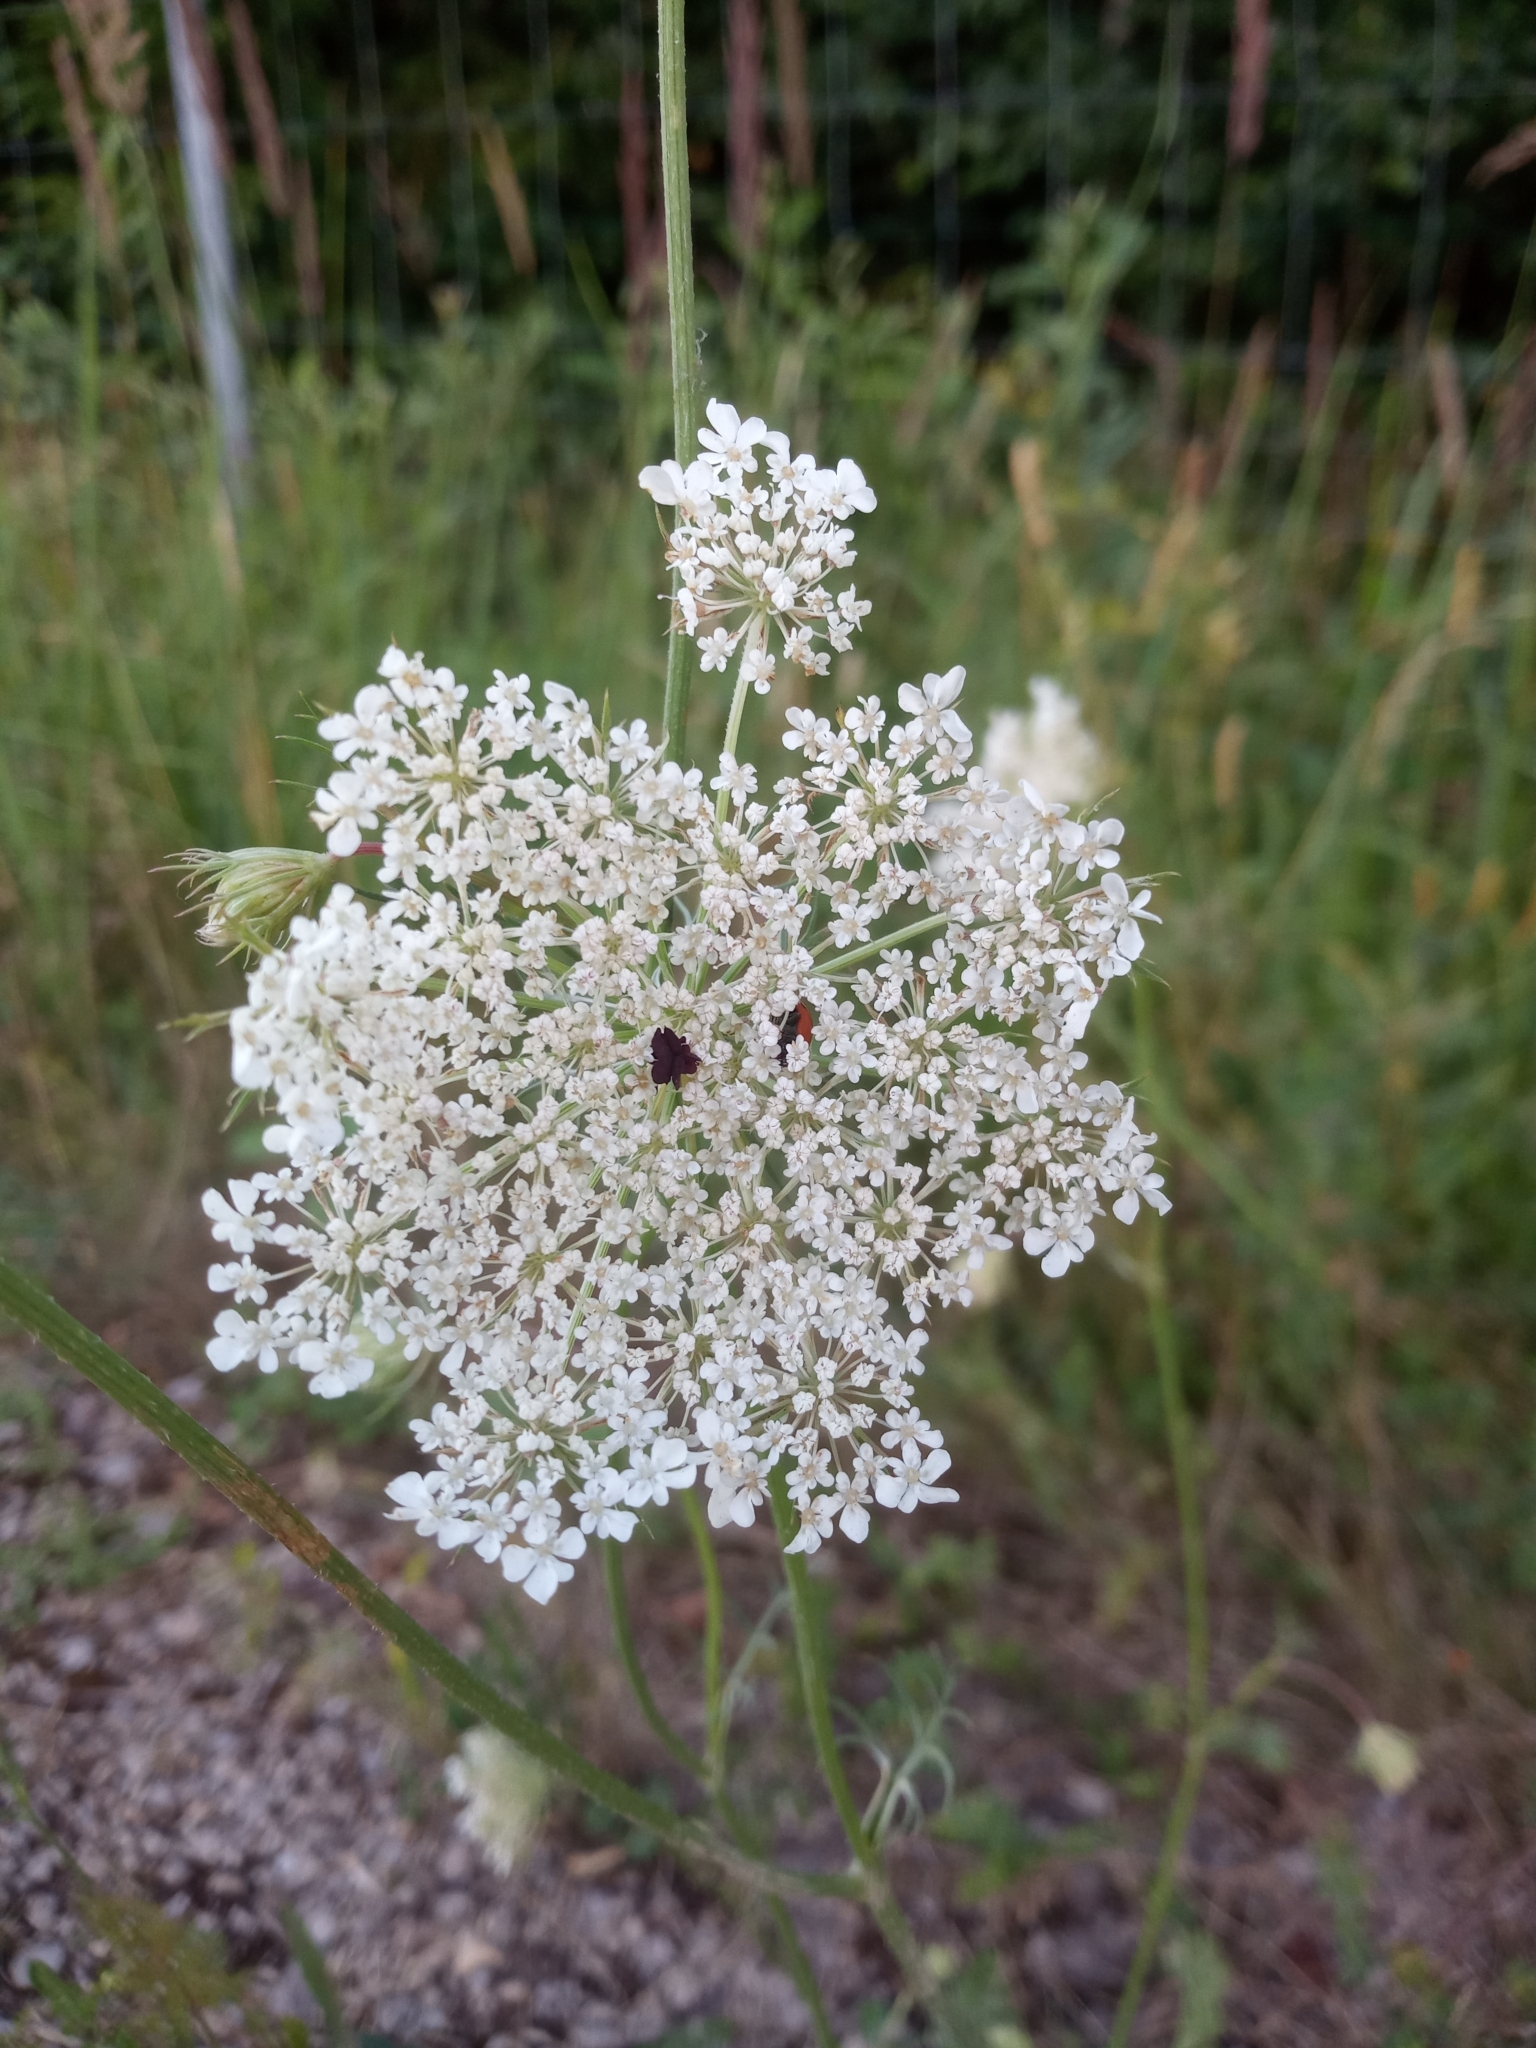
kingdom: Plantae
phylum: Tracheophyta
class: Magnoliopsida
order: Apiales
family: Apiaceae
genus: Daucus
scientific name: Daucus carota
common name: Wild carrot
